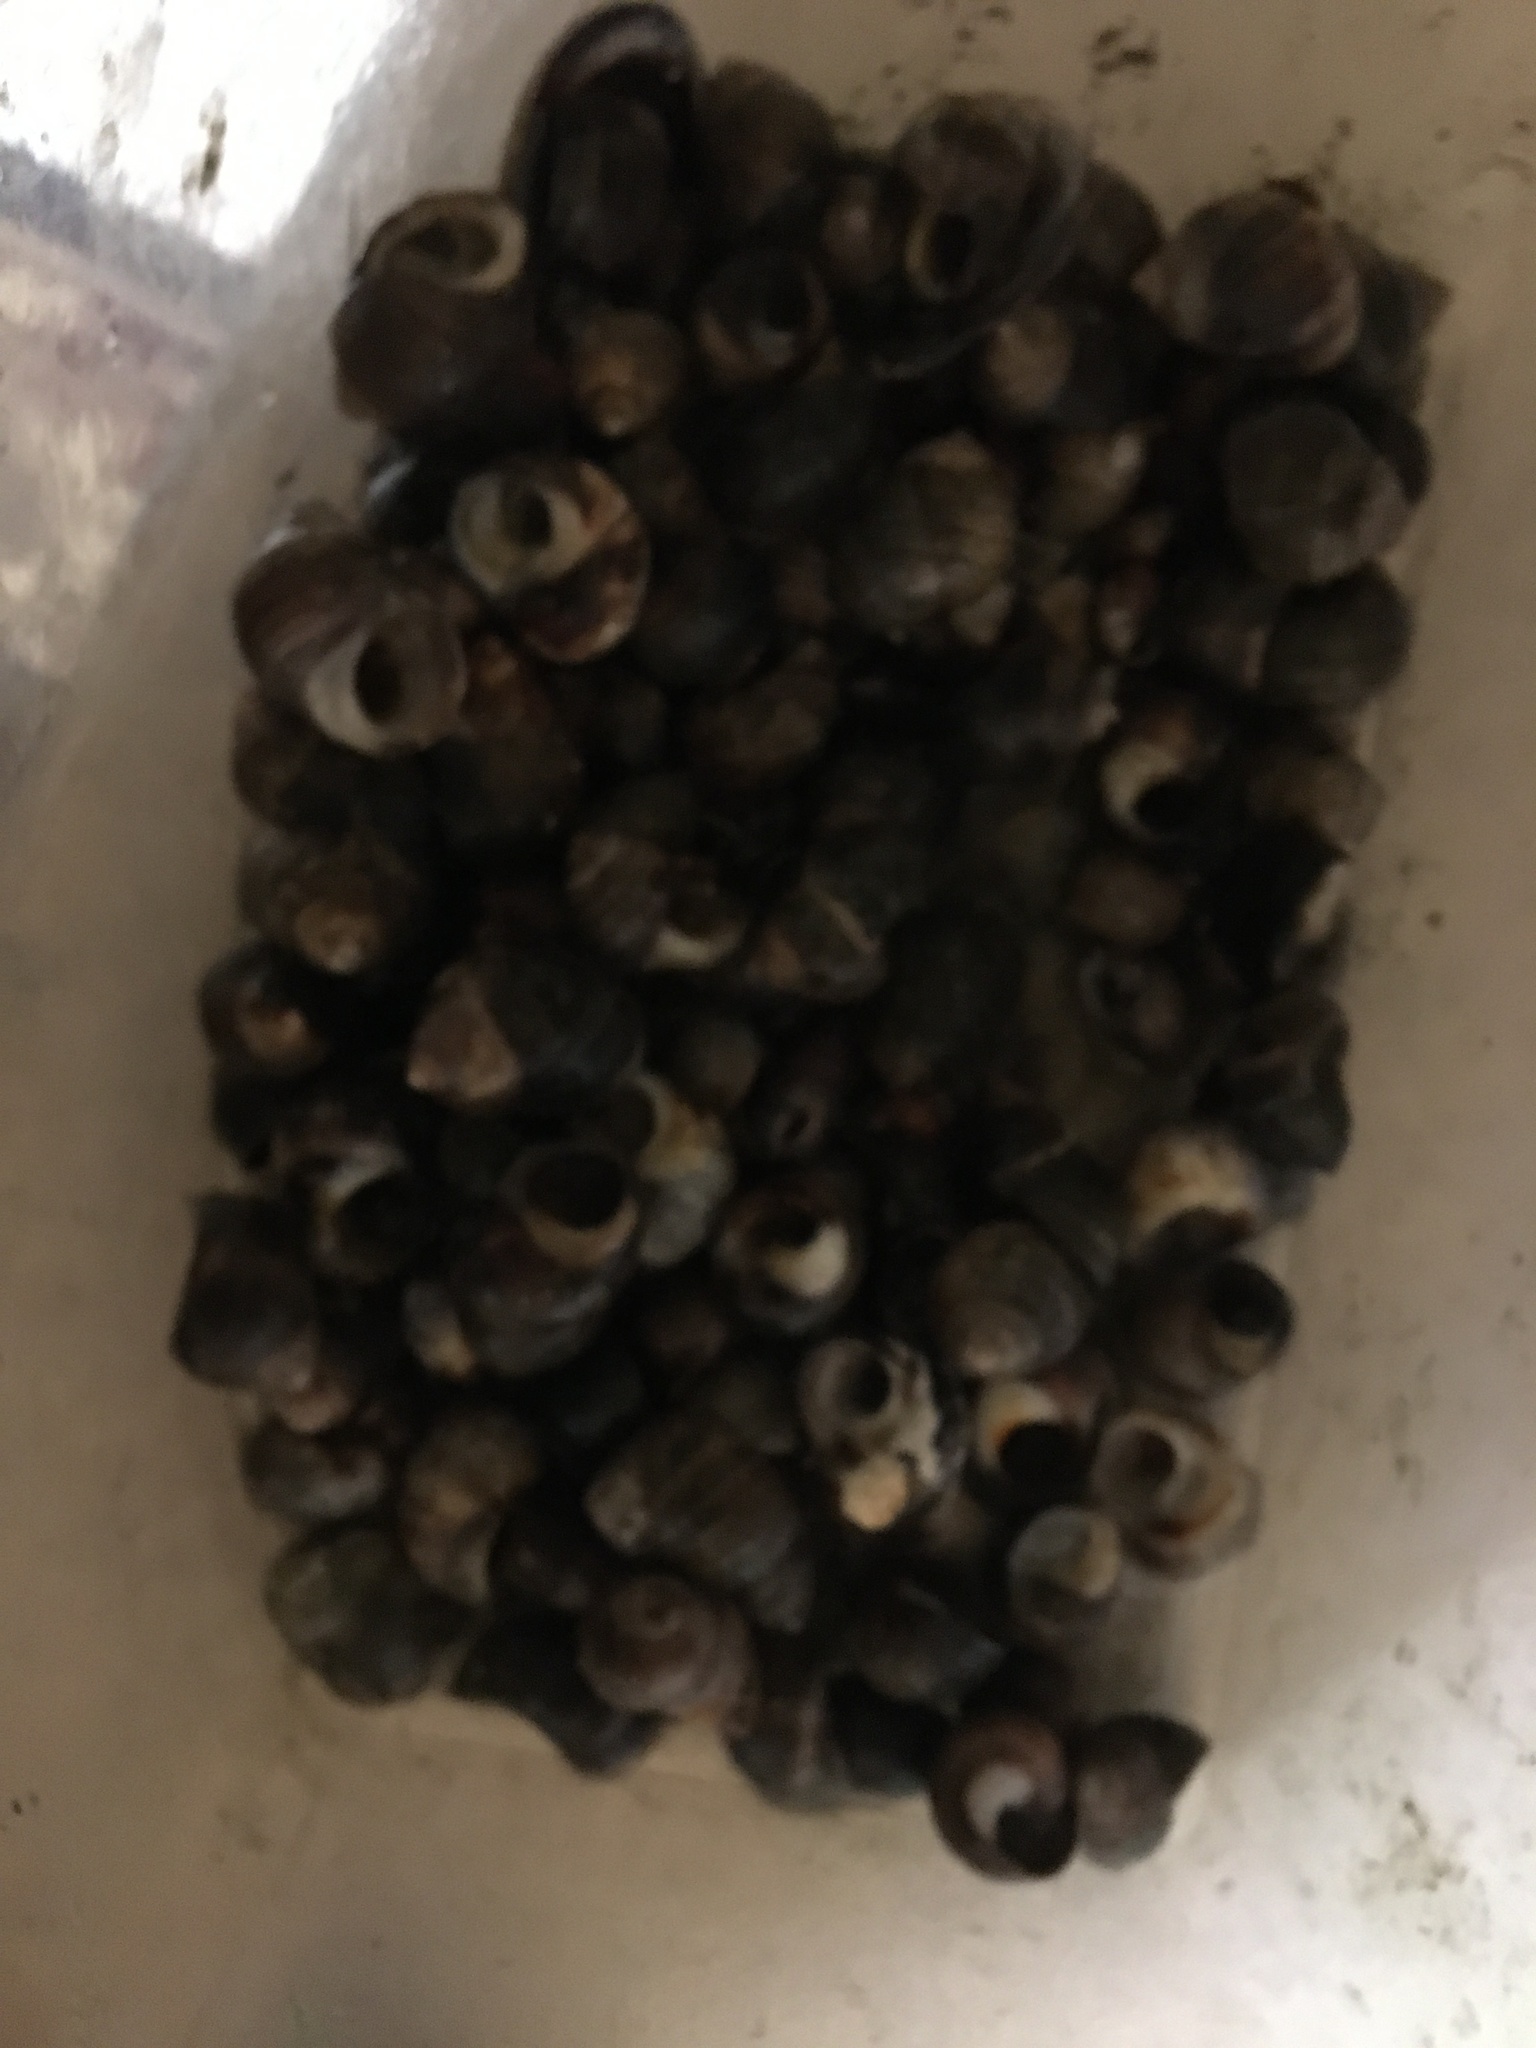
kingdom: Animalia
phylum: Mollusca
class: Gastropoda
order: Littorinimorpha
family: Littorinidae
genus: Littorina
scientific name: Littorina littorea
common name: Common periwinkle
